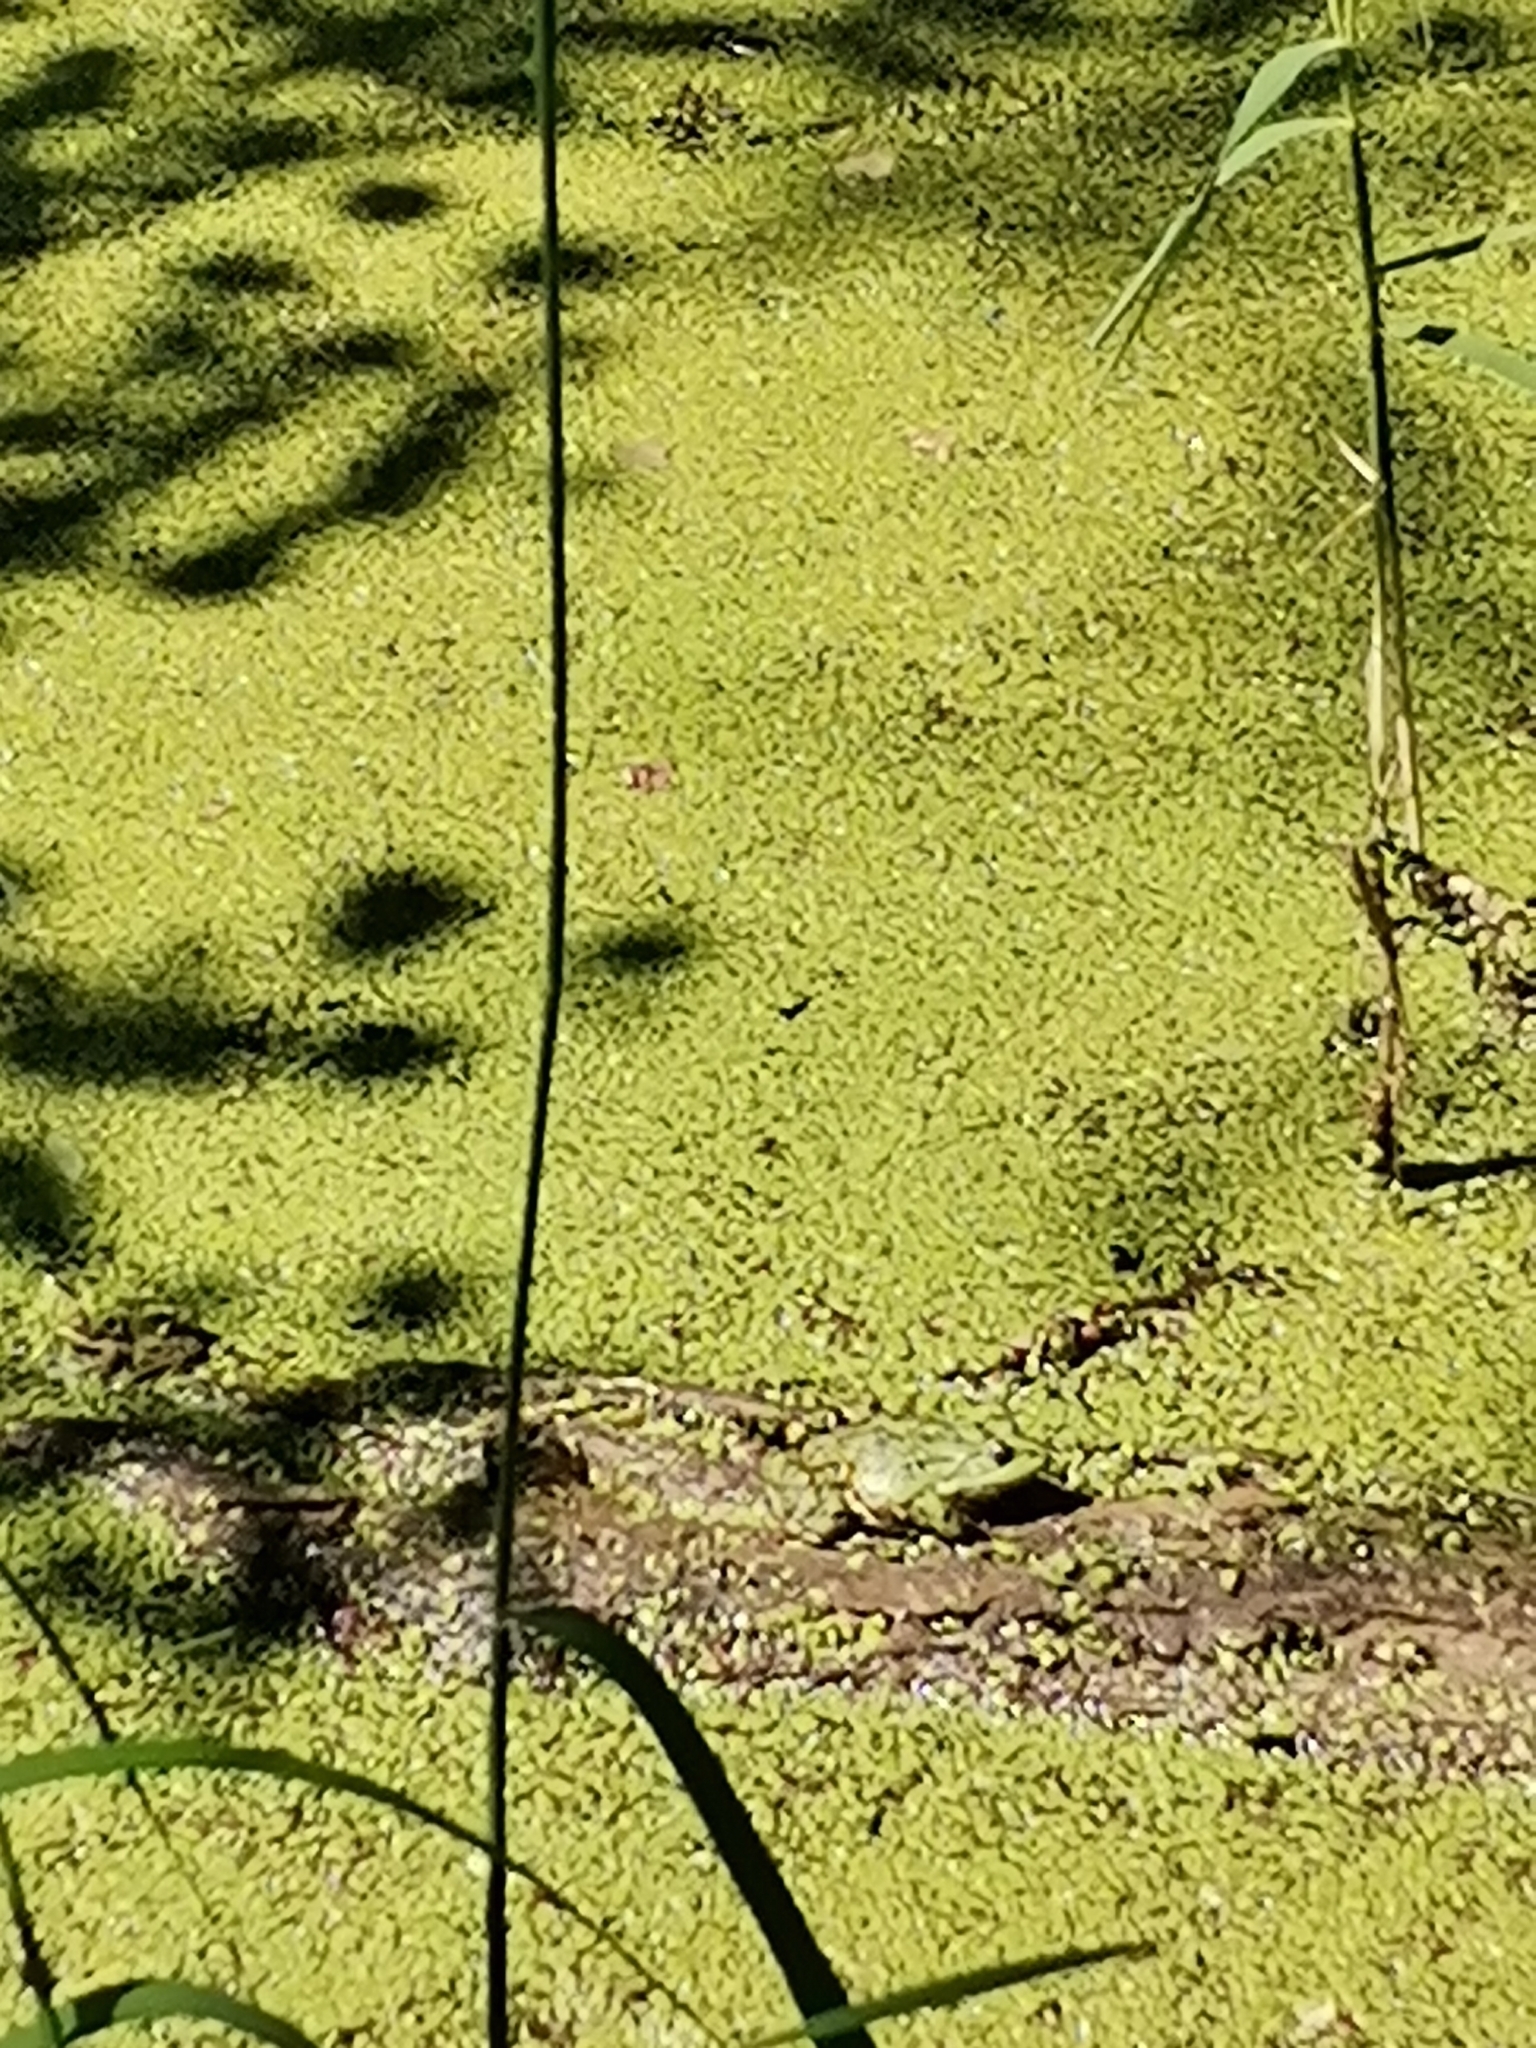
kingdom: Animalia
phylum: Chordata
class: Amphibia
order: Anura
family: Ranidae
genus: Pelophylax
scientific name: Pelophylax
